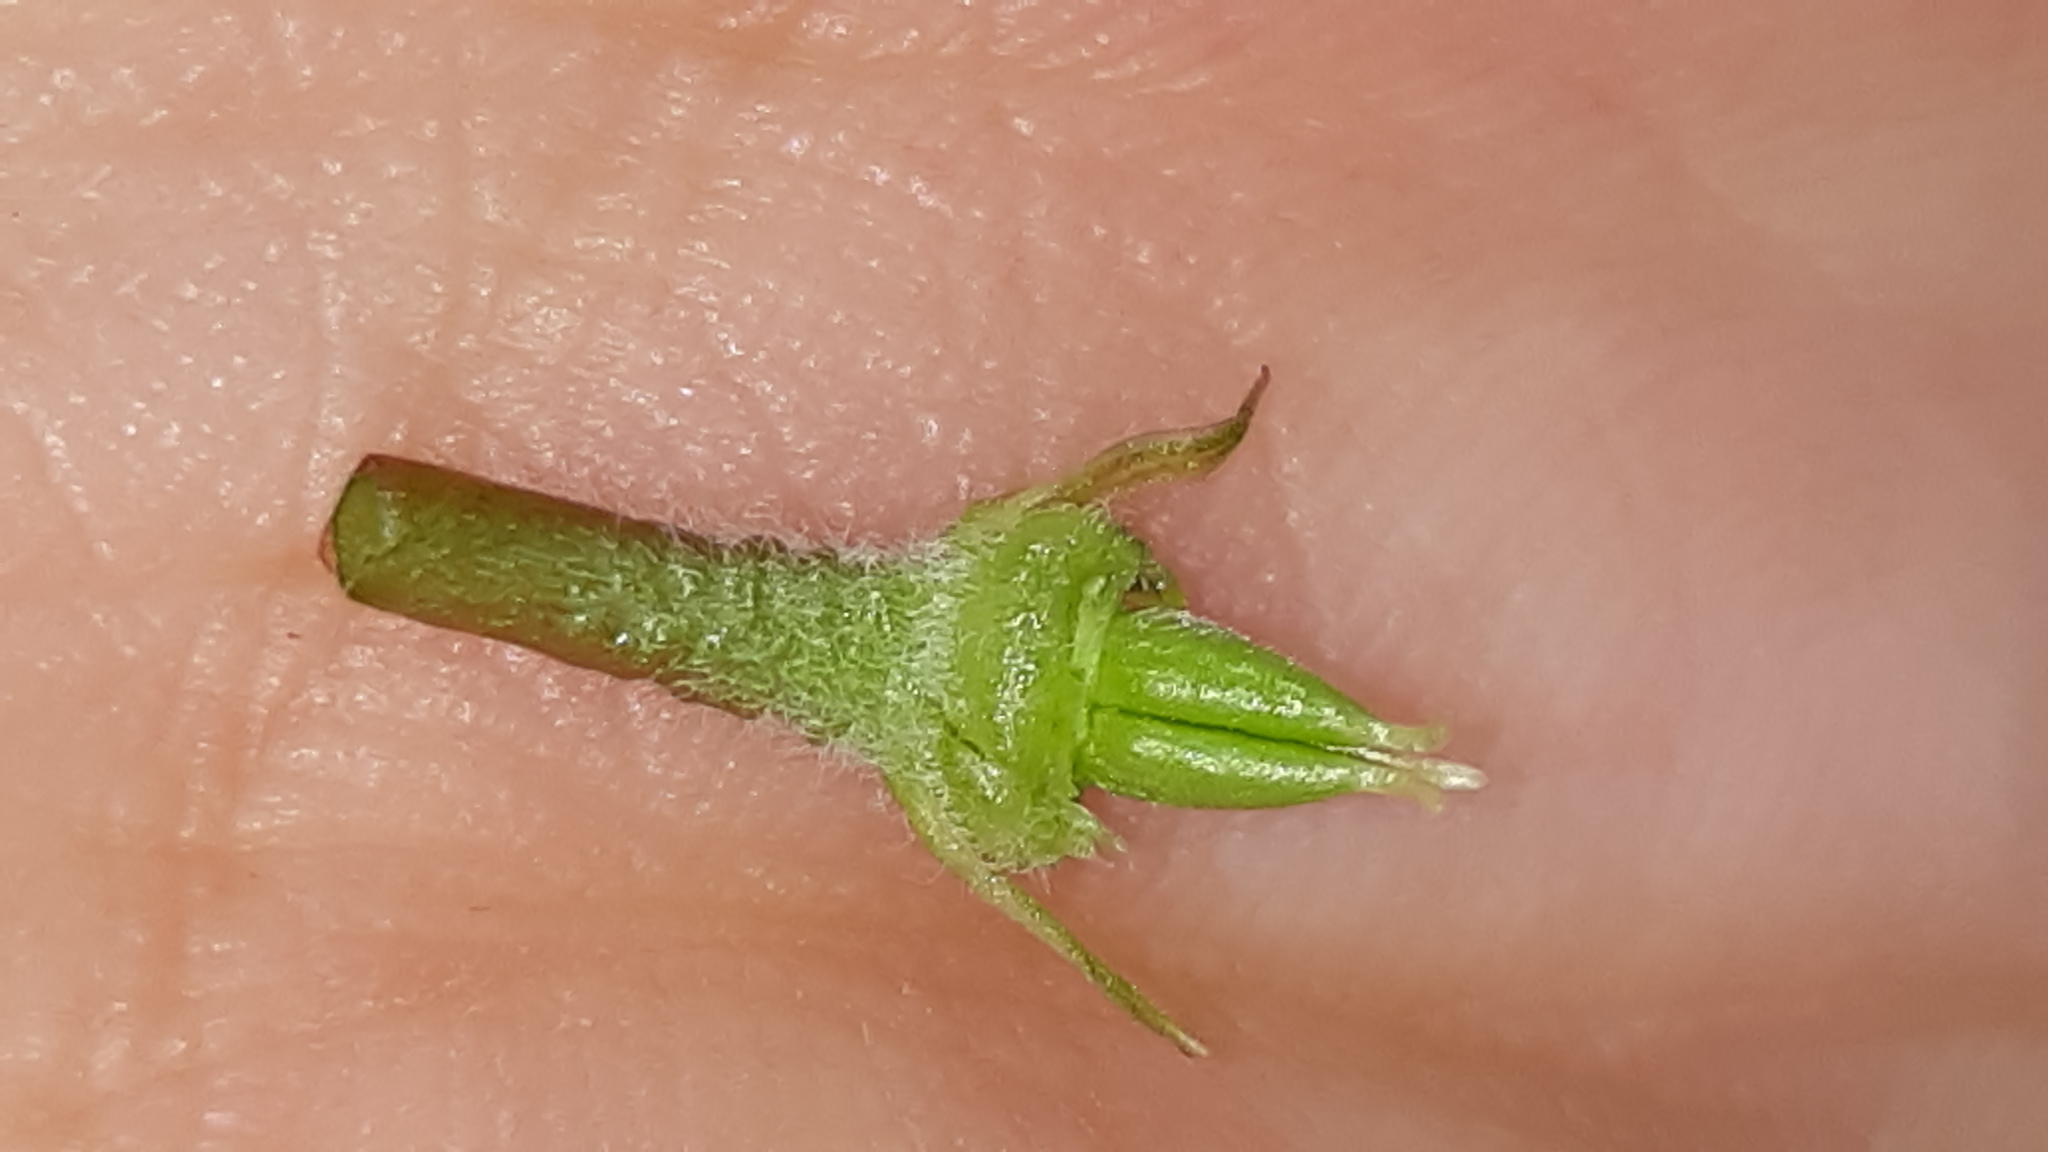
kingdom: Plantae
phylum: Tracheophyta
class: Magnoliopsida
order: Ranunculales
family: Ranunculaceae
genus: Delphinium
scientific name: Delphinium tricorne
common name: Dwarf larkspur
